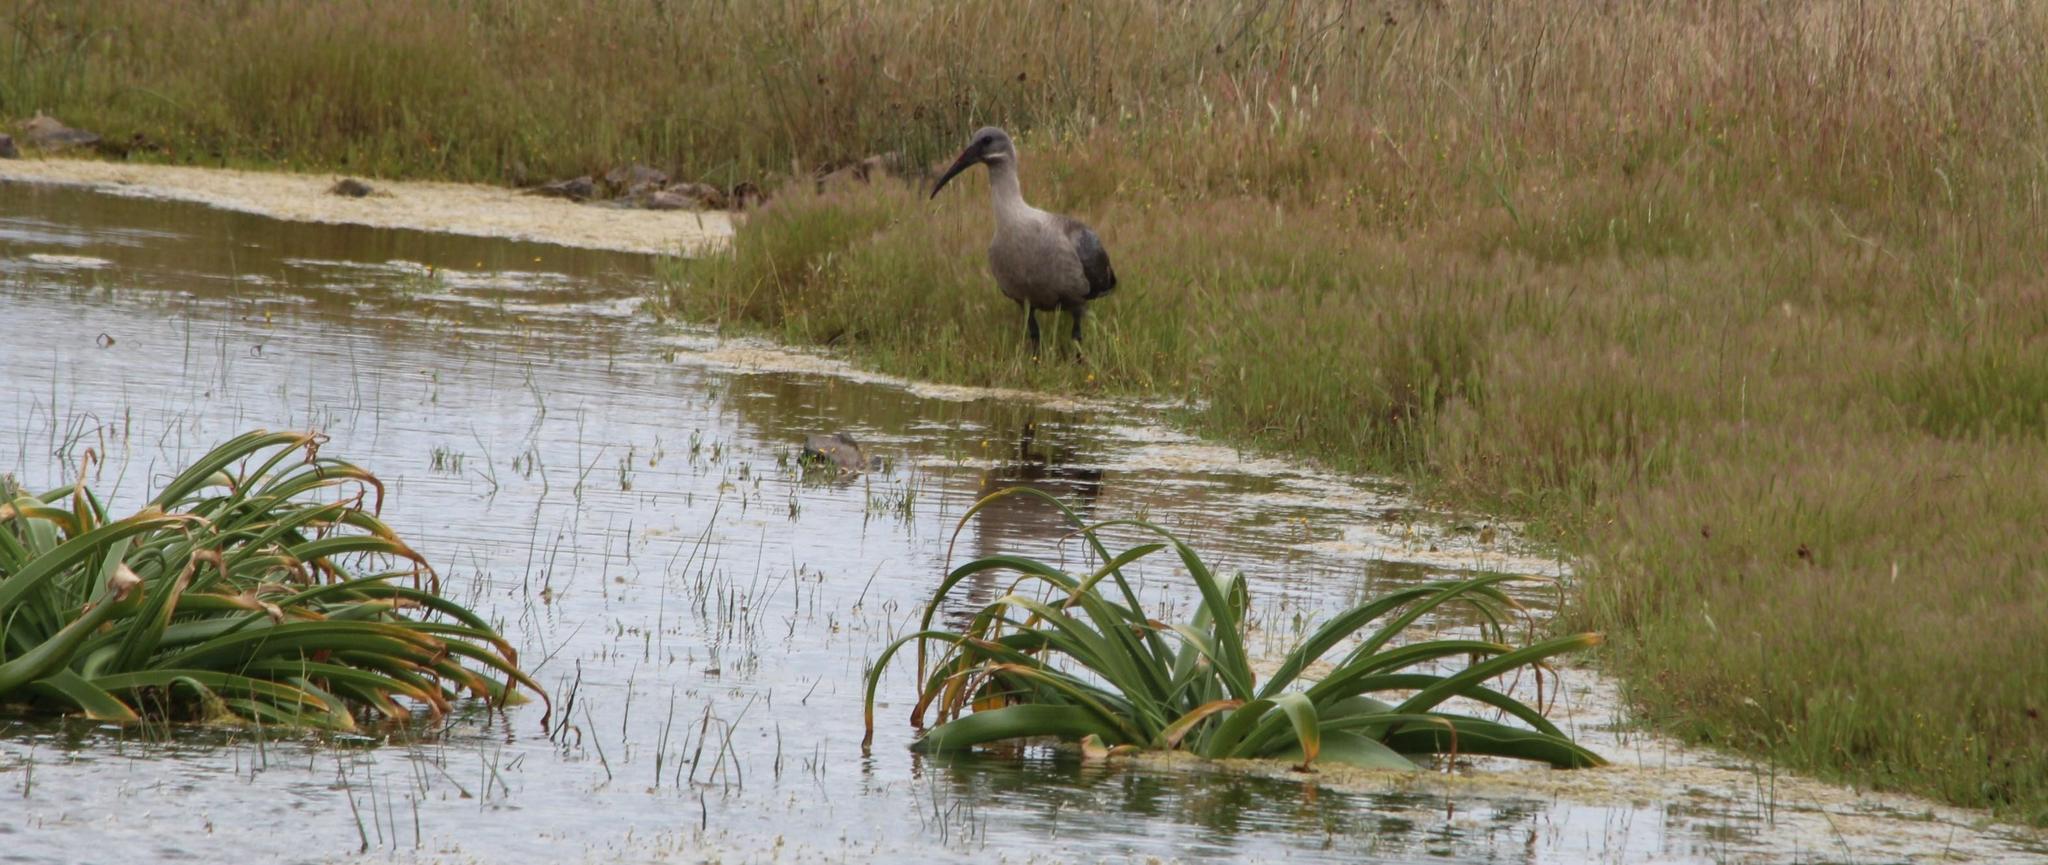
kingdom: Animalia
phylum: Chordata
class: Aves
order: Pelecaniformes
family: Threskiornithidae
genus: Bostrychia
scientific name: Bostrychia hagedash
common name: Hadada ibis
